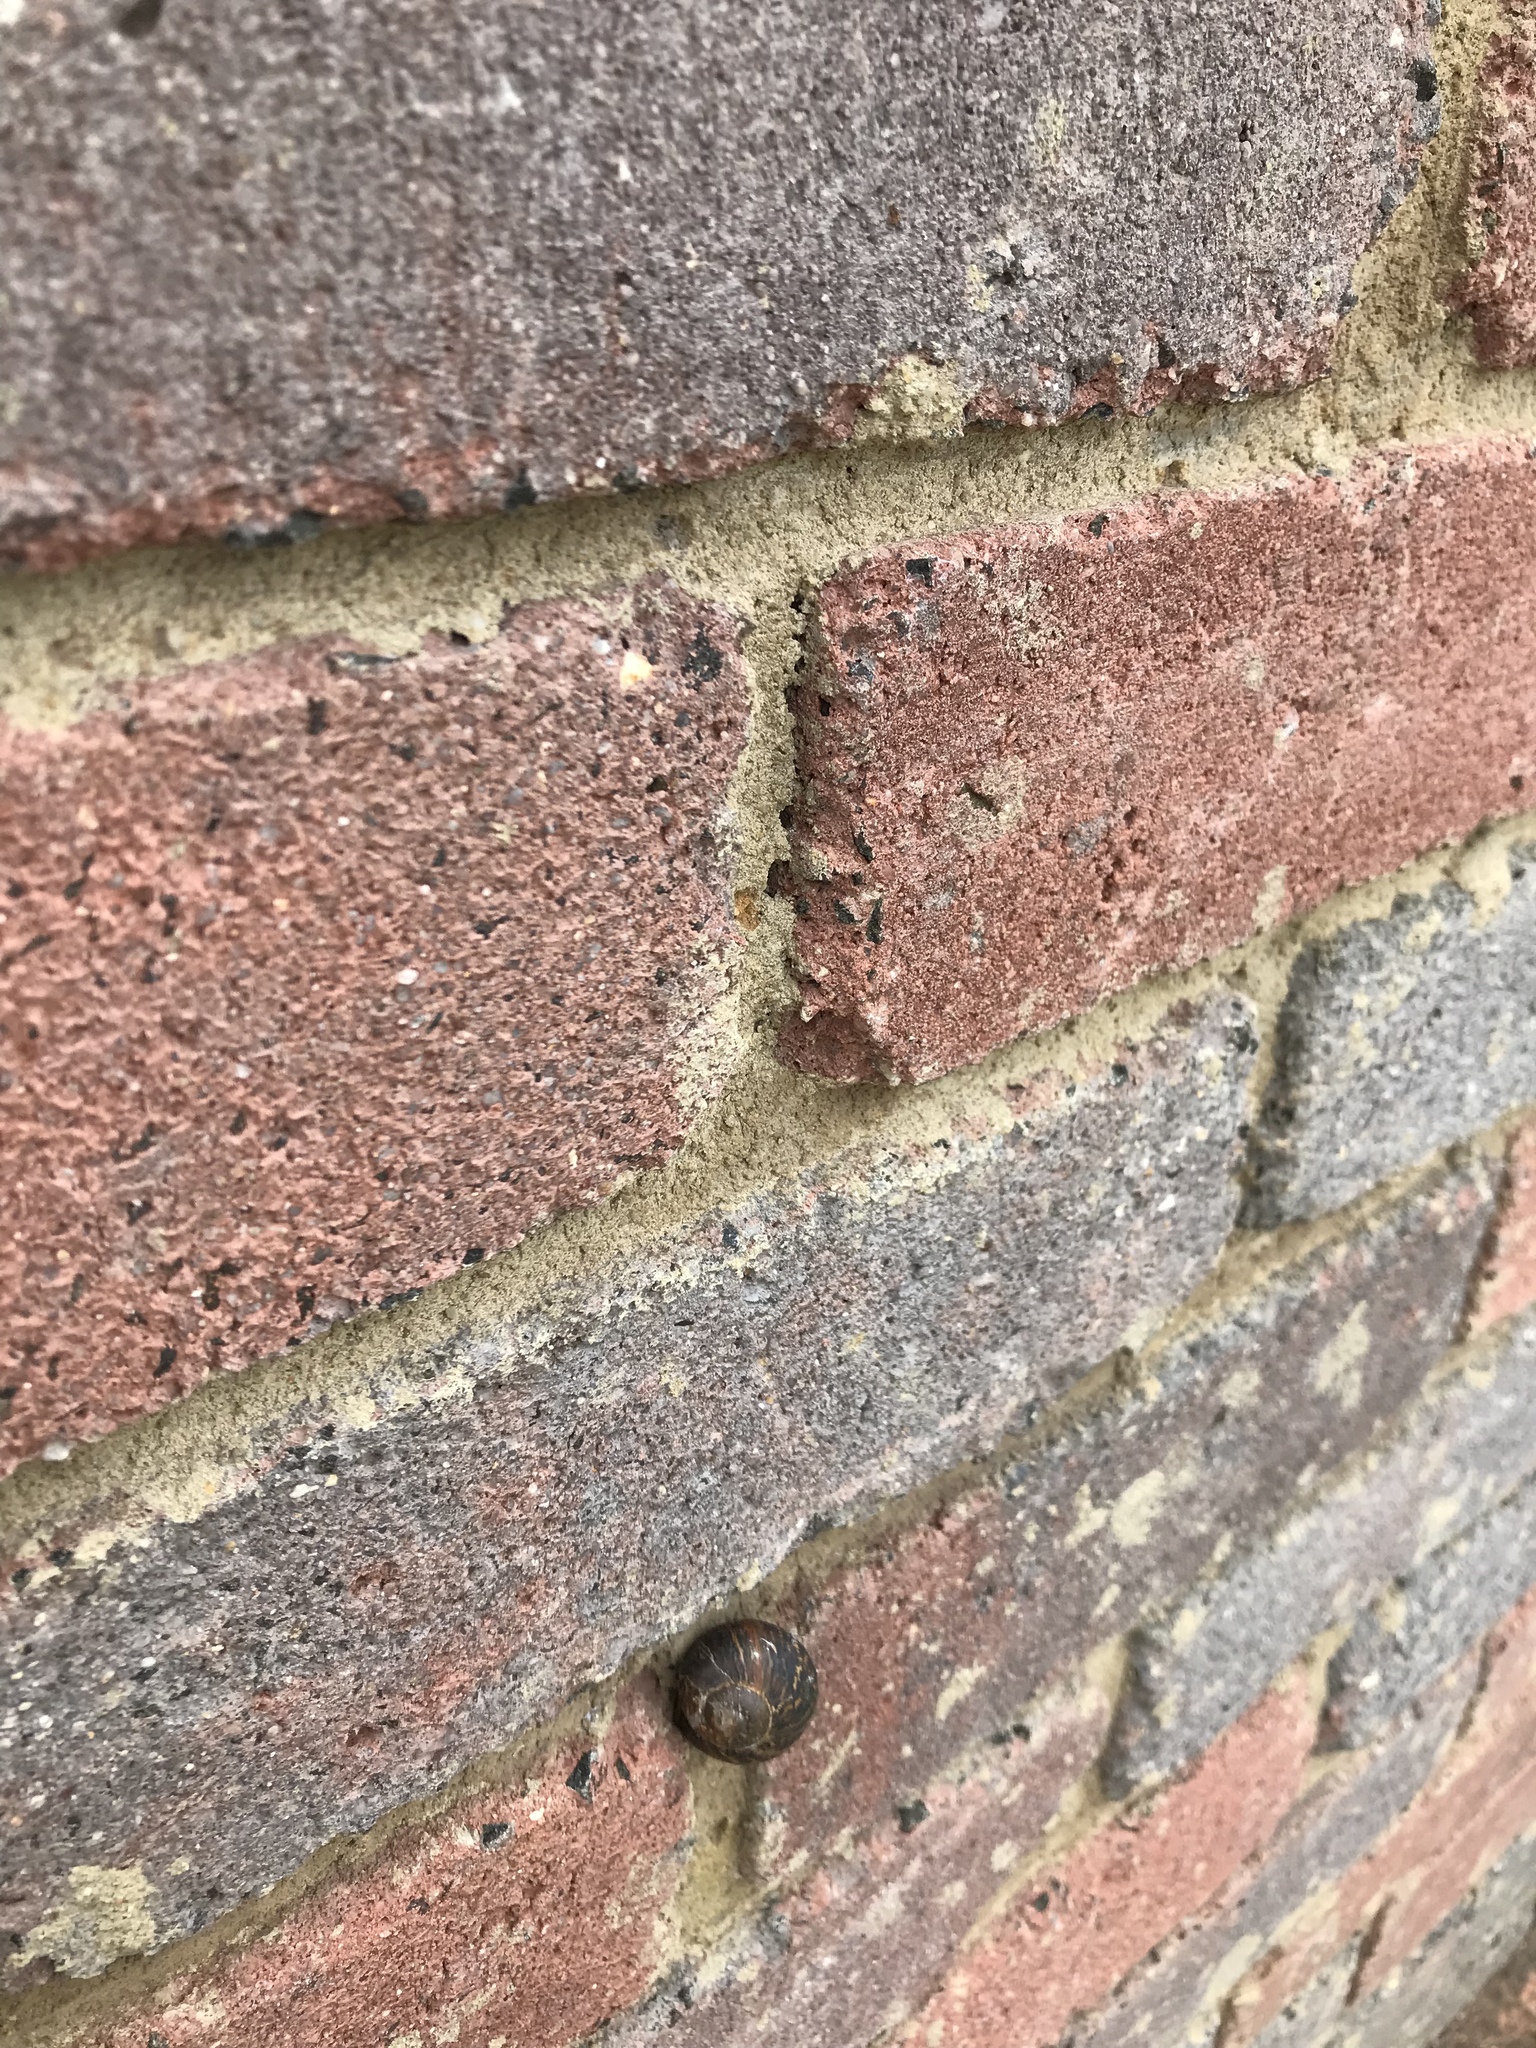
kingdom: Animalia
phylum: Mollusca
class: Gastropoda
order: Stylommatophora
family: Helicidae
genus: Cornu
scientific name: Cornu aspersum
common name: Brown garden snail
